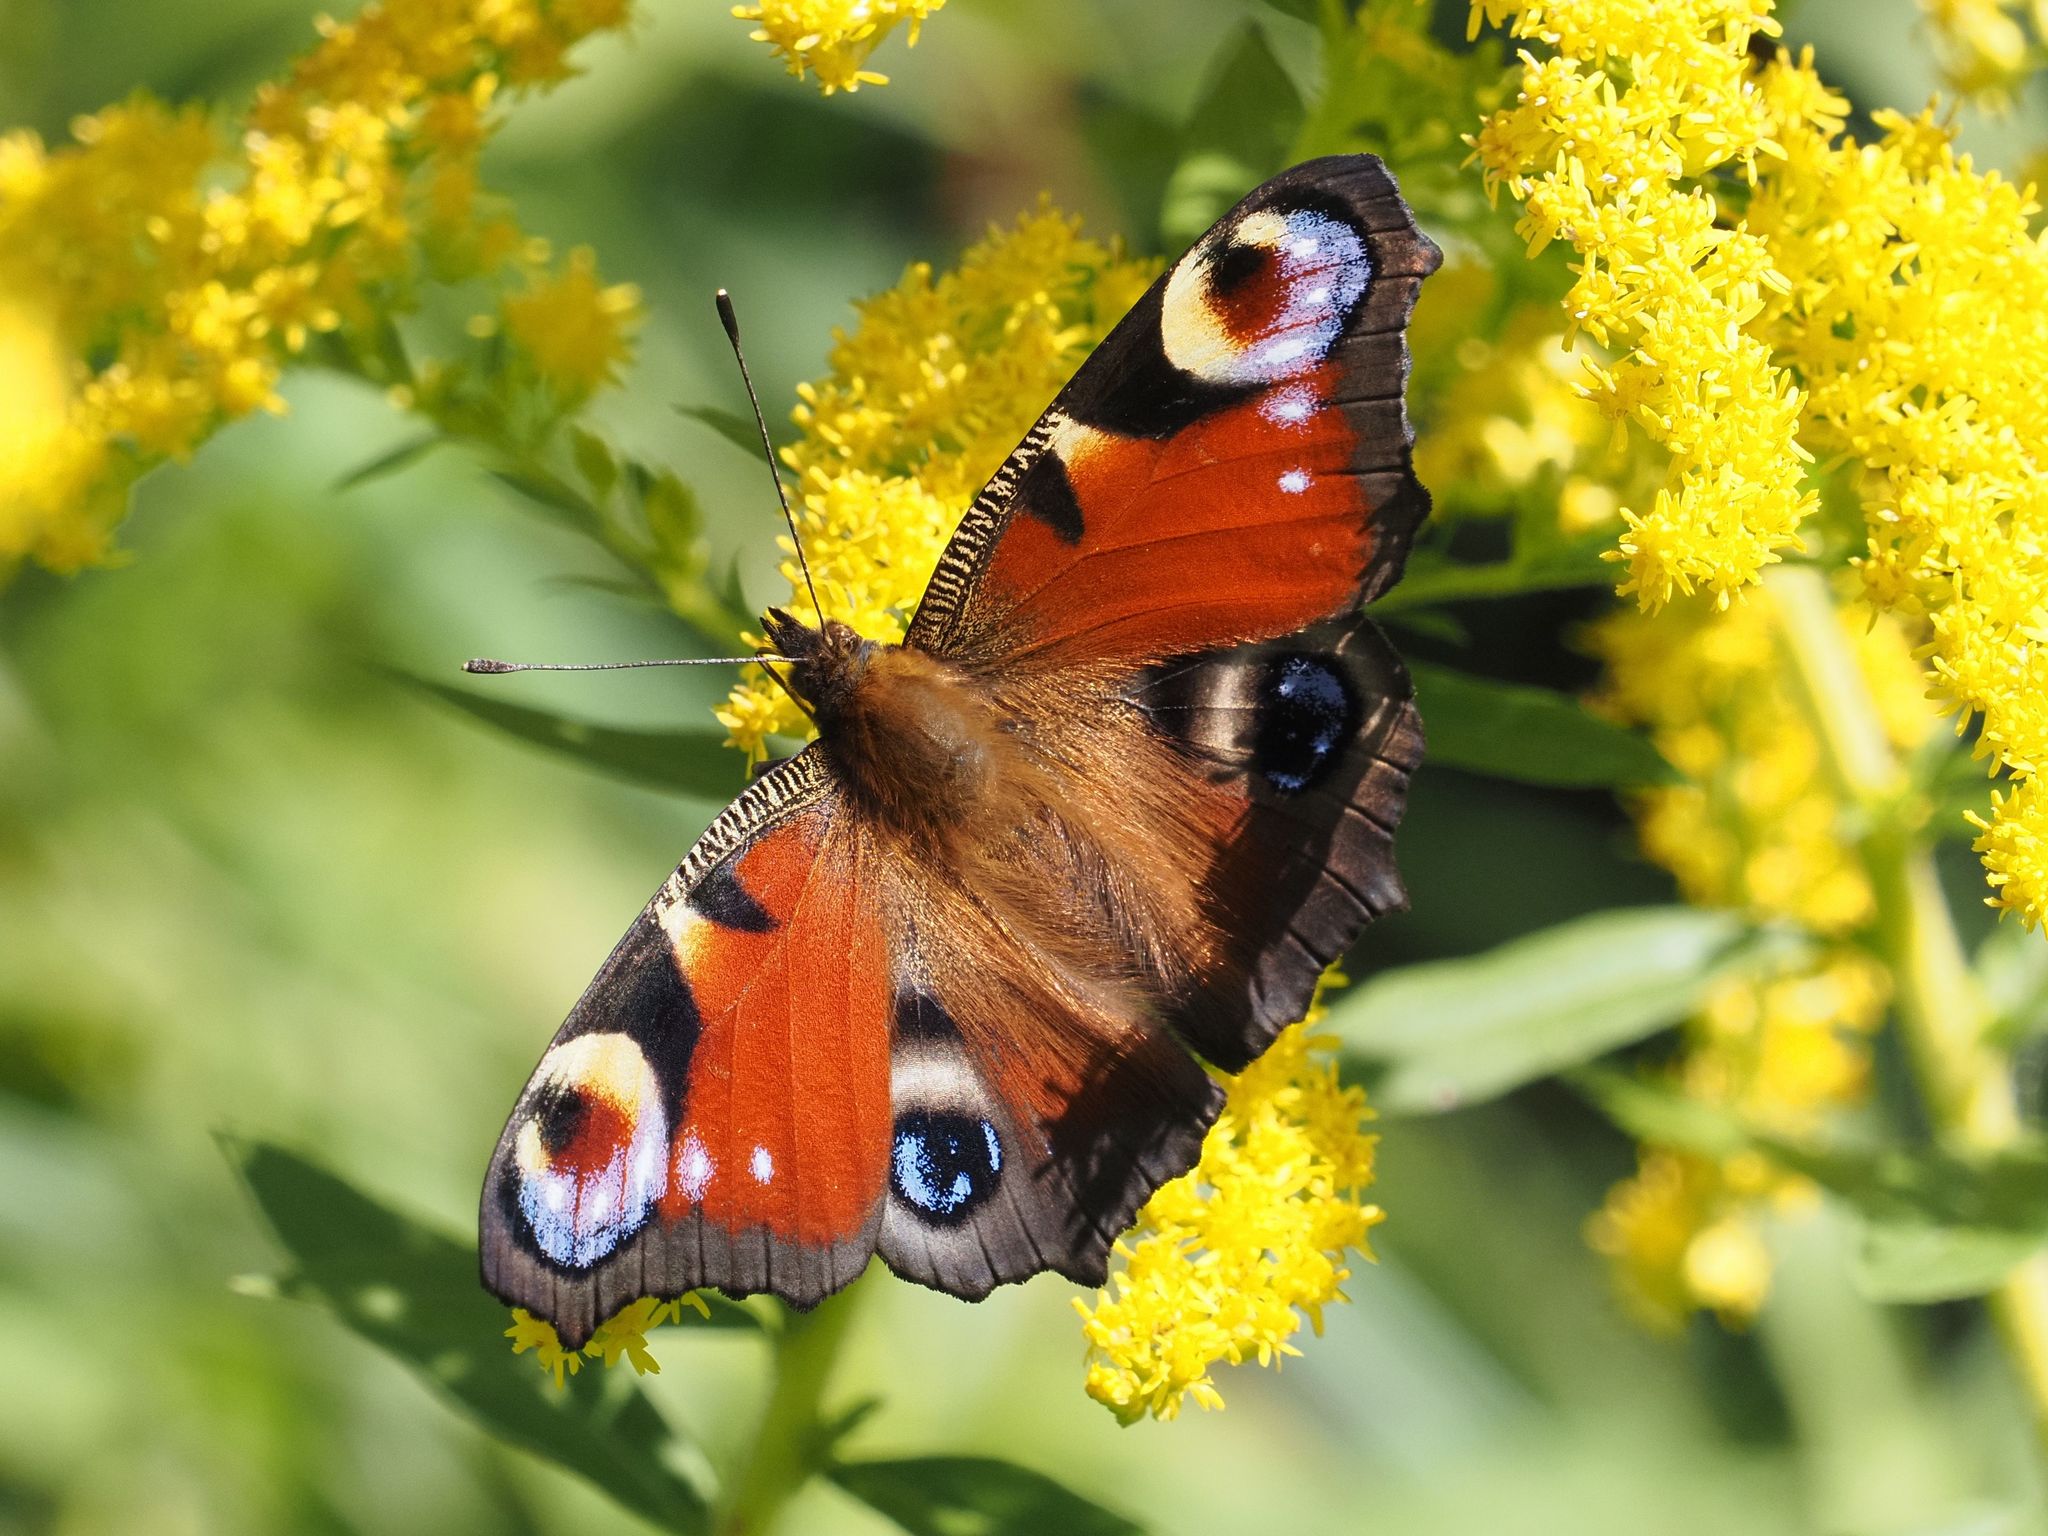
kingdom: Animalia
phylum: Arthropoda
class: Insecta
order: Lepidoptera
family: Nymphalidae
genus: Aglais
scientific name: Aglais io
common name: Peacock
